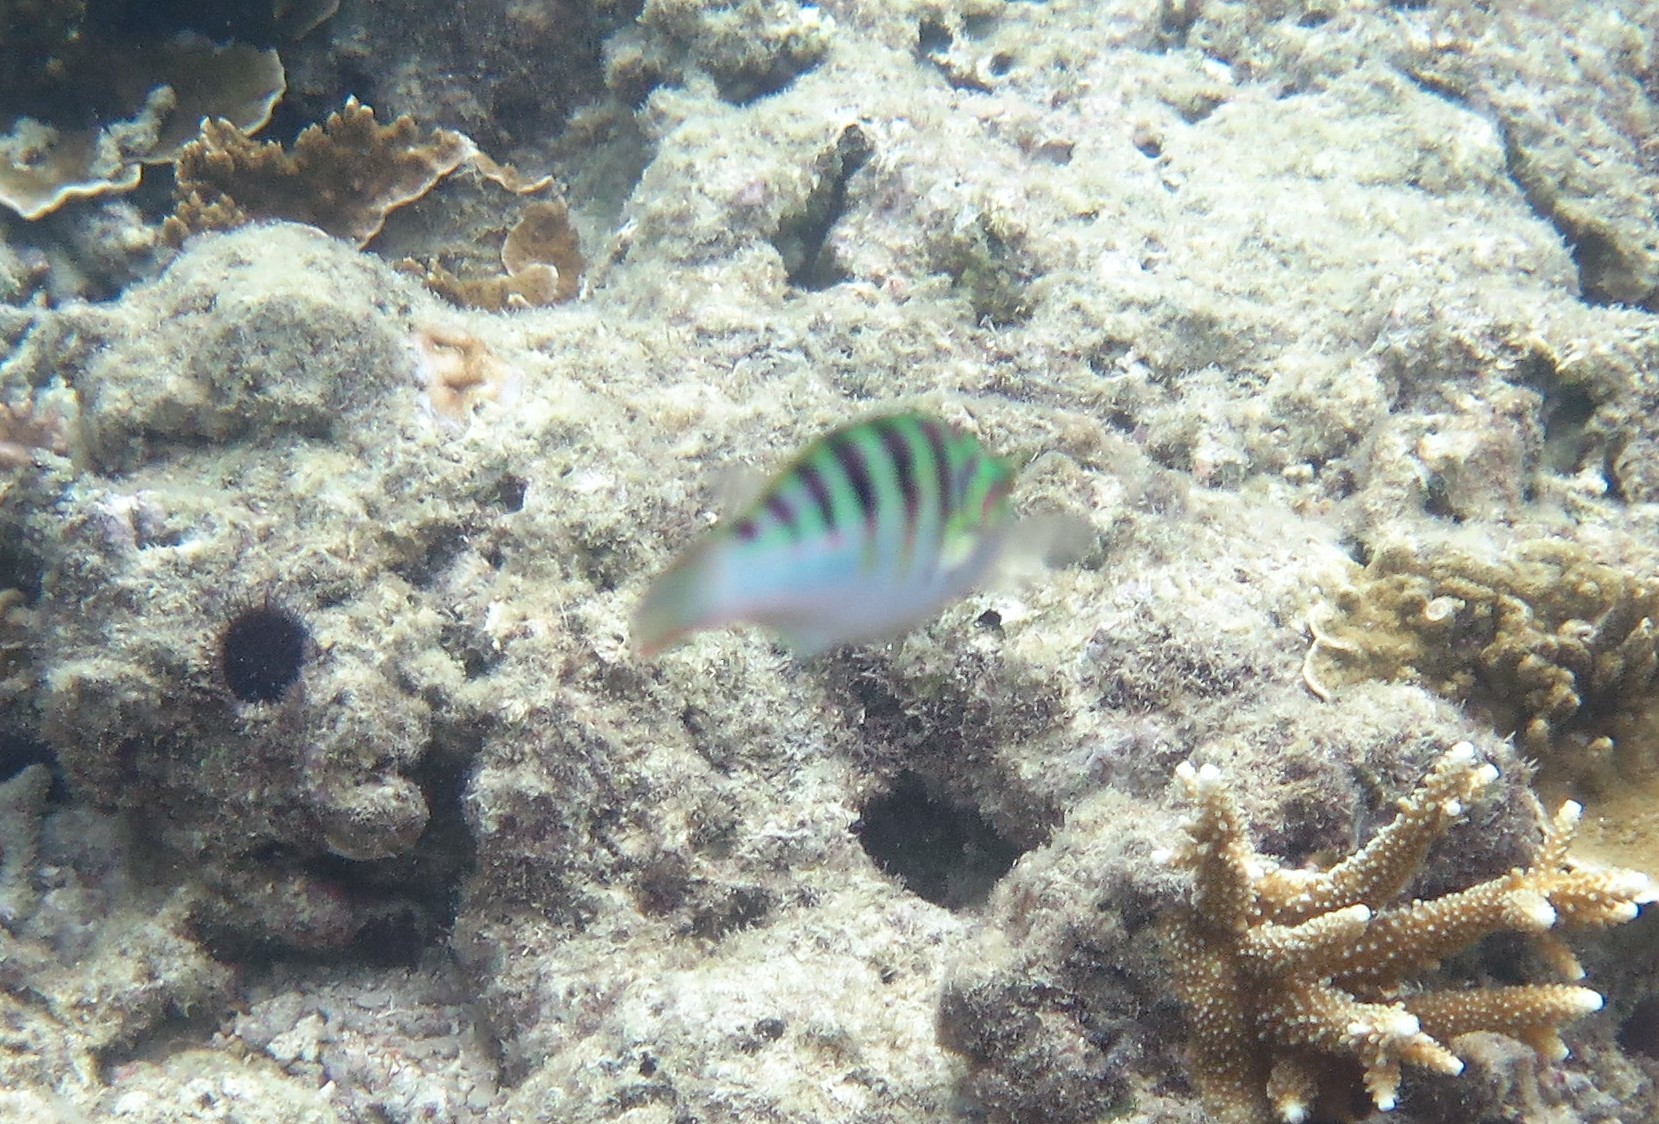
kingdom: Animalia
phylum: Chordata
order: Perciformes
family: Labridae
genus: Thalassoma
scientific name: Thalassoma hardwicke
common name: Sixbar wrasse
